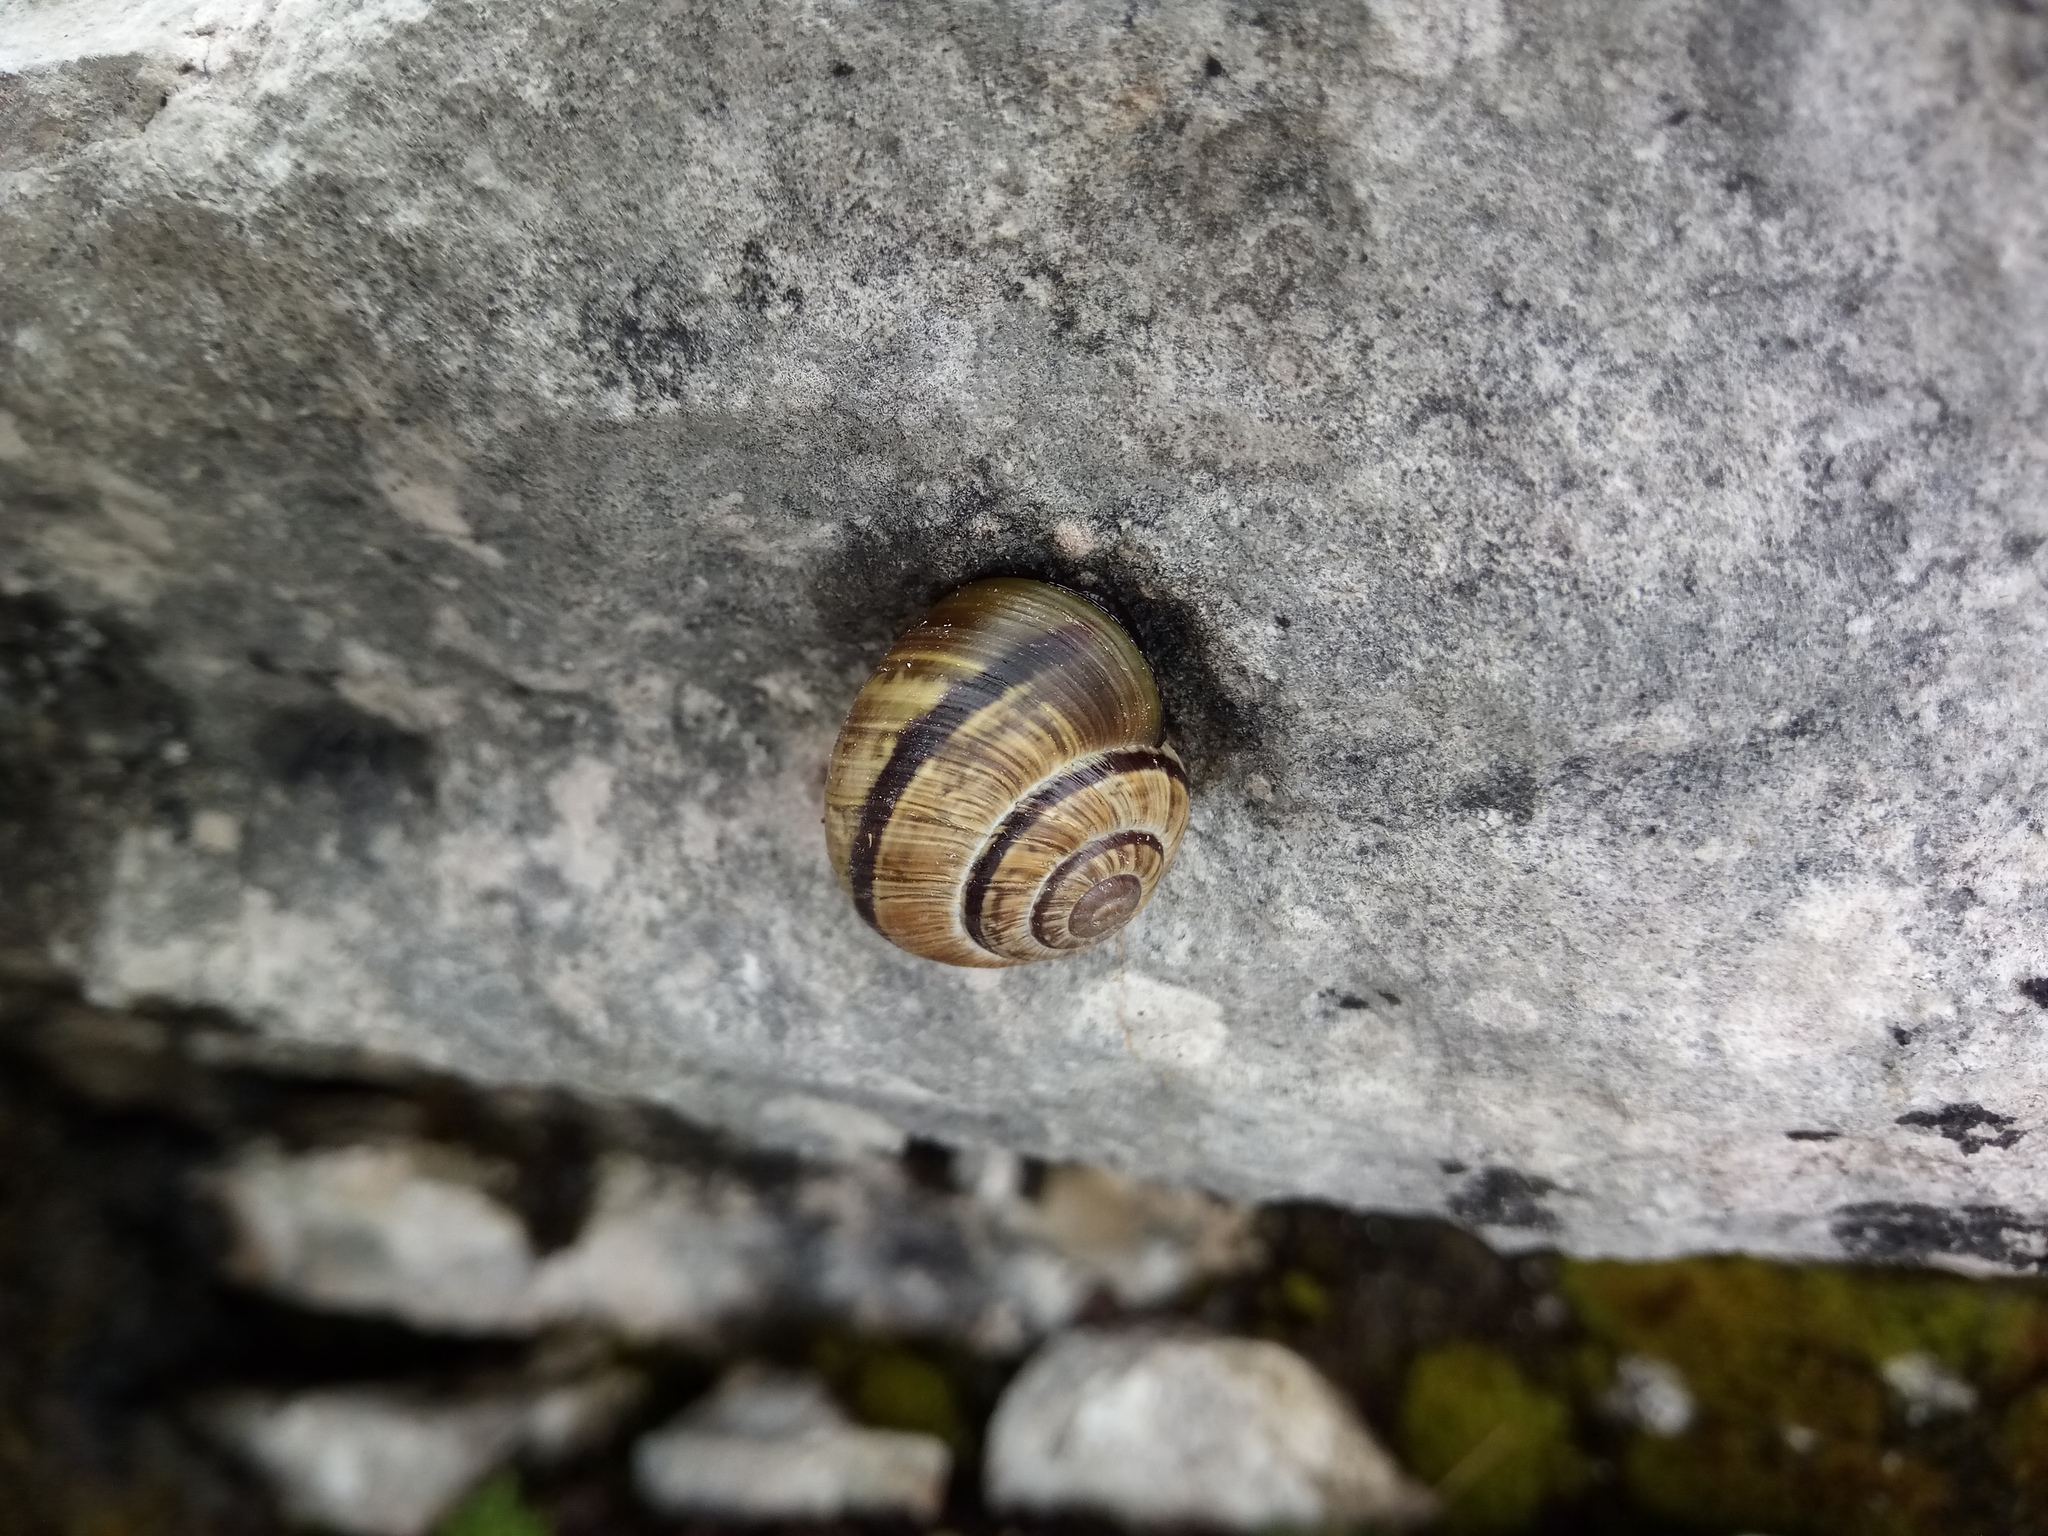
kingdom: Animalia
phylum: Mollusca
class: Gastropoda
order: Stylommatophora
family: Helicidae
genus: Arianta
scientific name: Arianta arbustorum
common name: Copse snail
